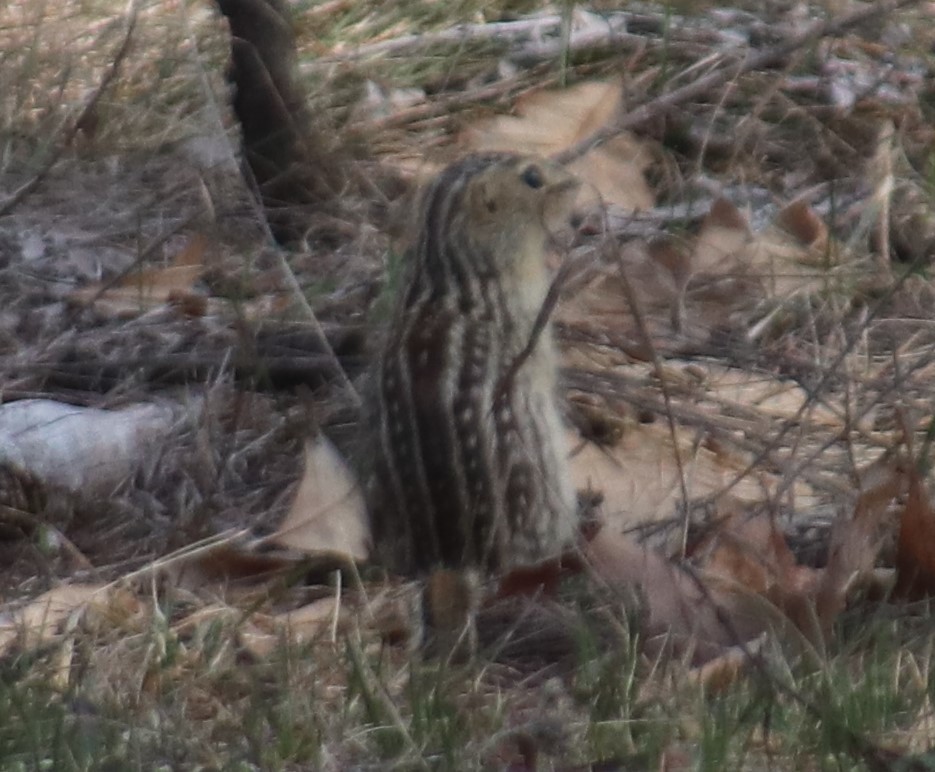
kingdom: Animalia
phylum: Chordata
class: Mammalia
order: Rodentia
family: Sciuridae
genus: Ictidomys
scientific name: Ictidomys tridecemlineatus
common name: Thirteen-lined ground squirrel
